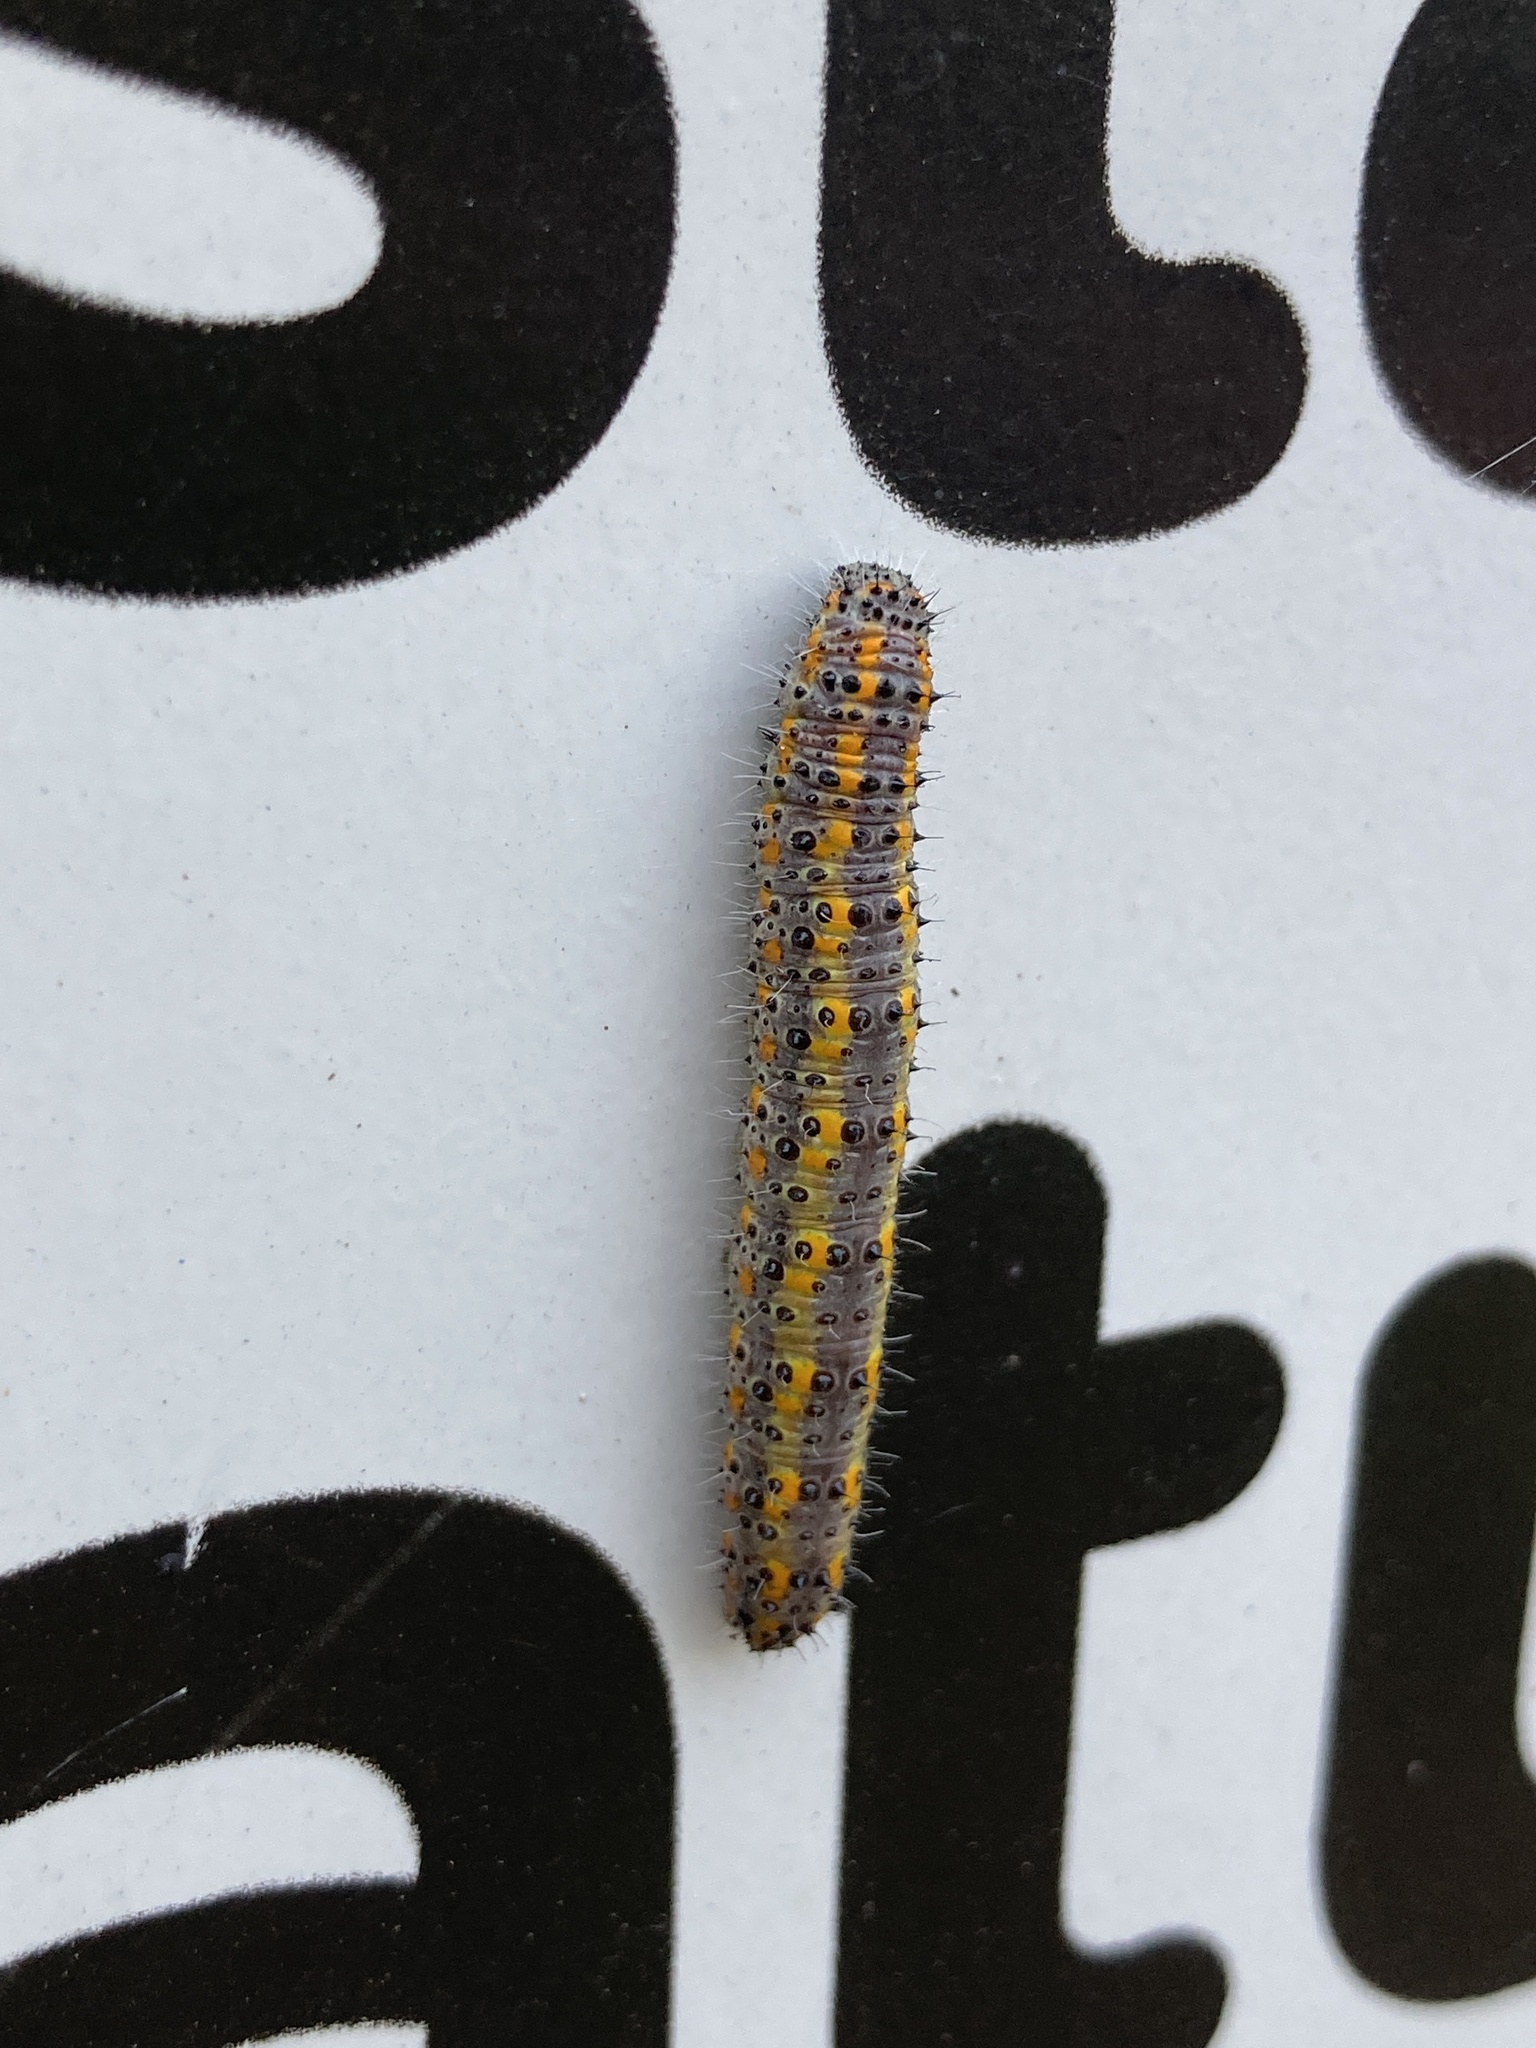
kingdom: Animalia
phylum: Arthropoda
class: Insecta
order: Lepidoptera
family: Pieridae
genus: Tatochila
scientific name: Tatochila autodice
